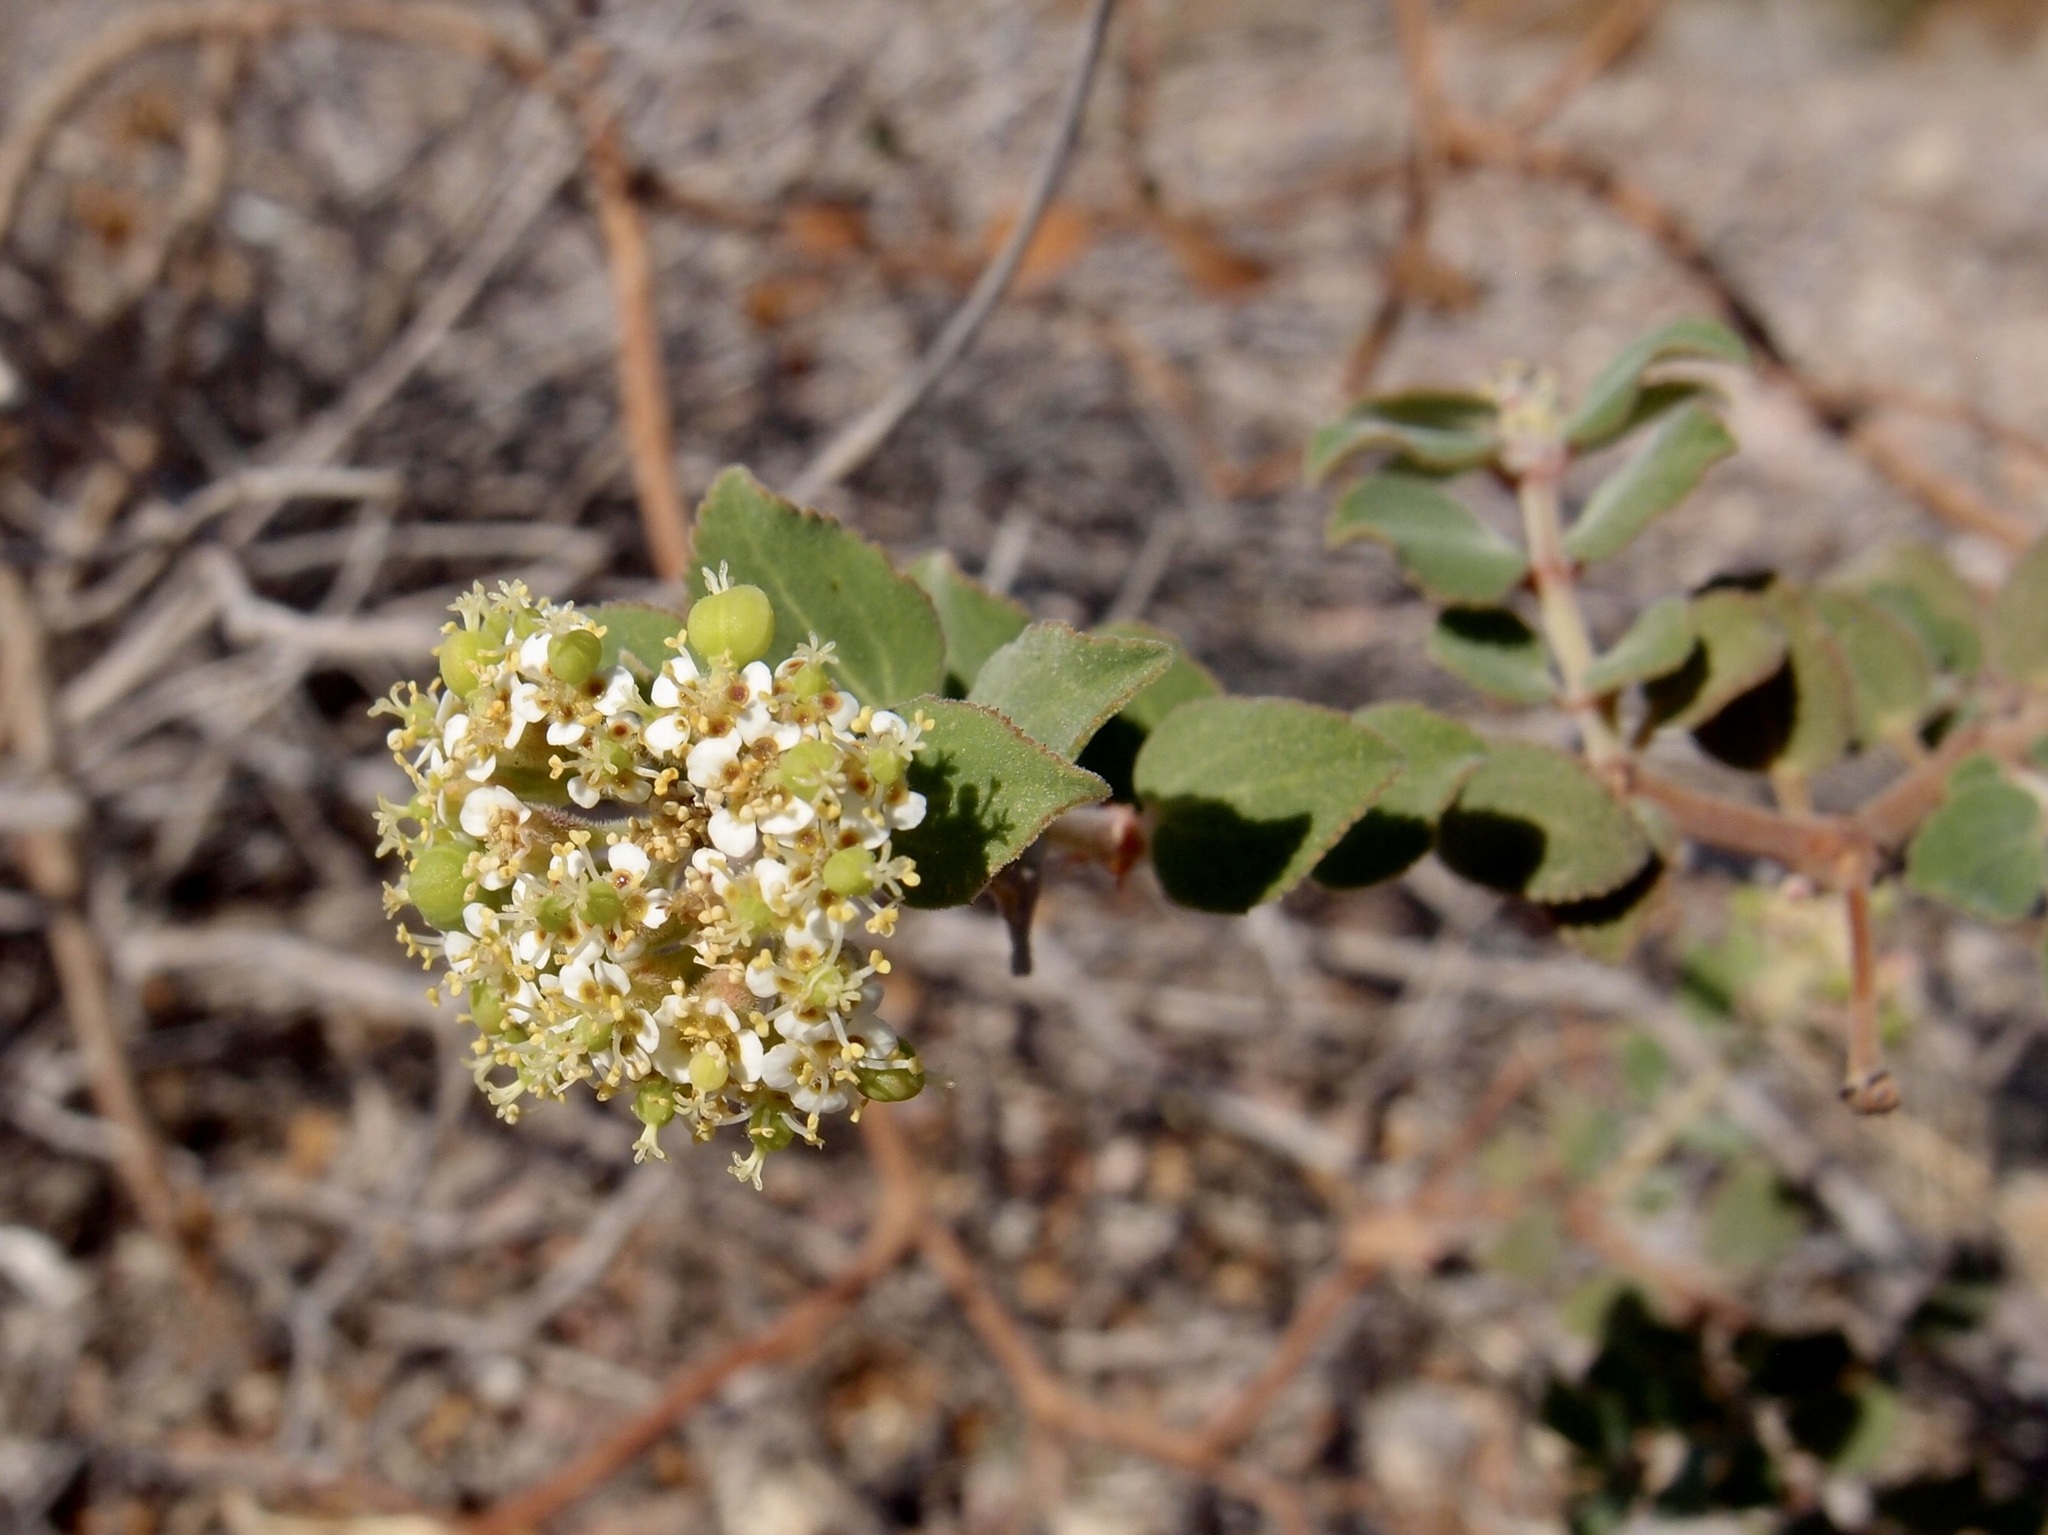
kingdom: Plantae
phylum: Tracheophyta
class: Magnoliopsida
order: Malpighiales
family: Euphorbiaceae
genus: Euphorbia
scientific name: Euphorbia tomentulosa
